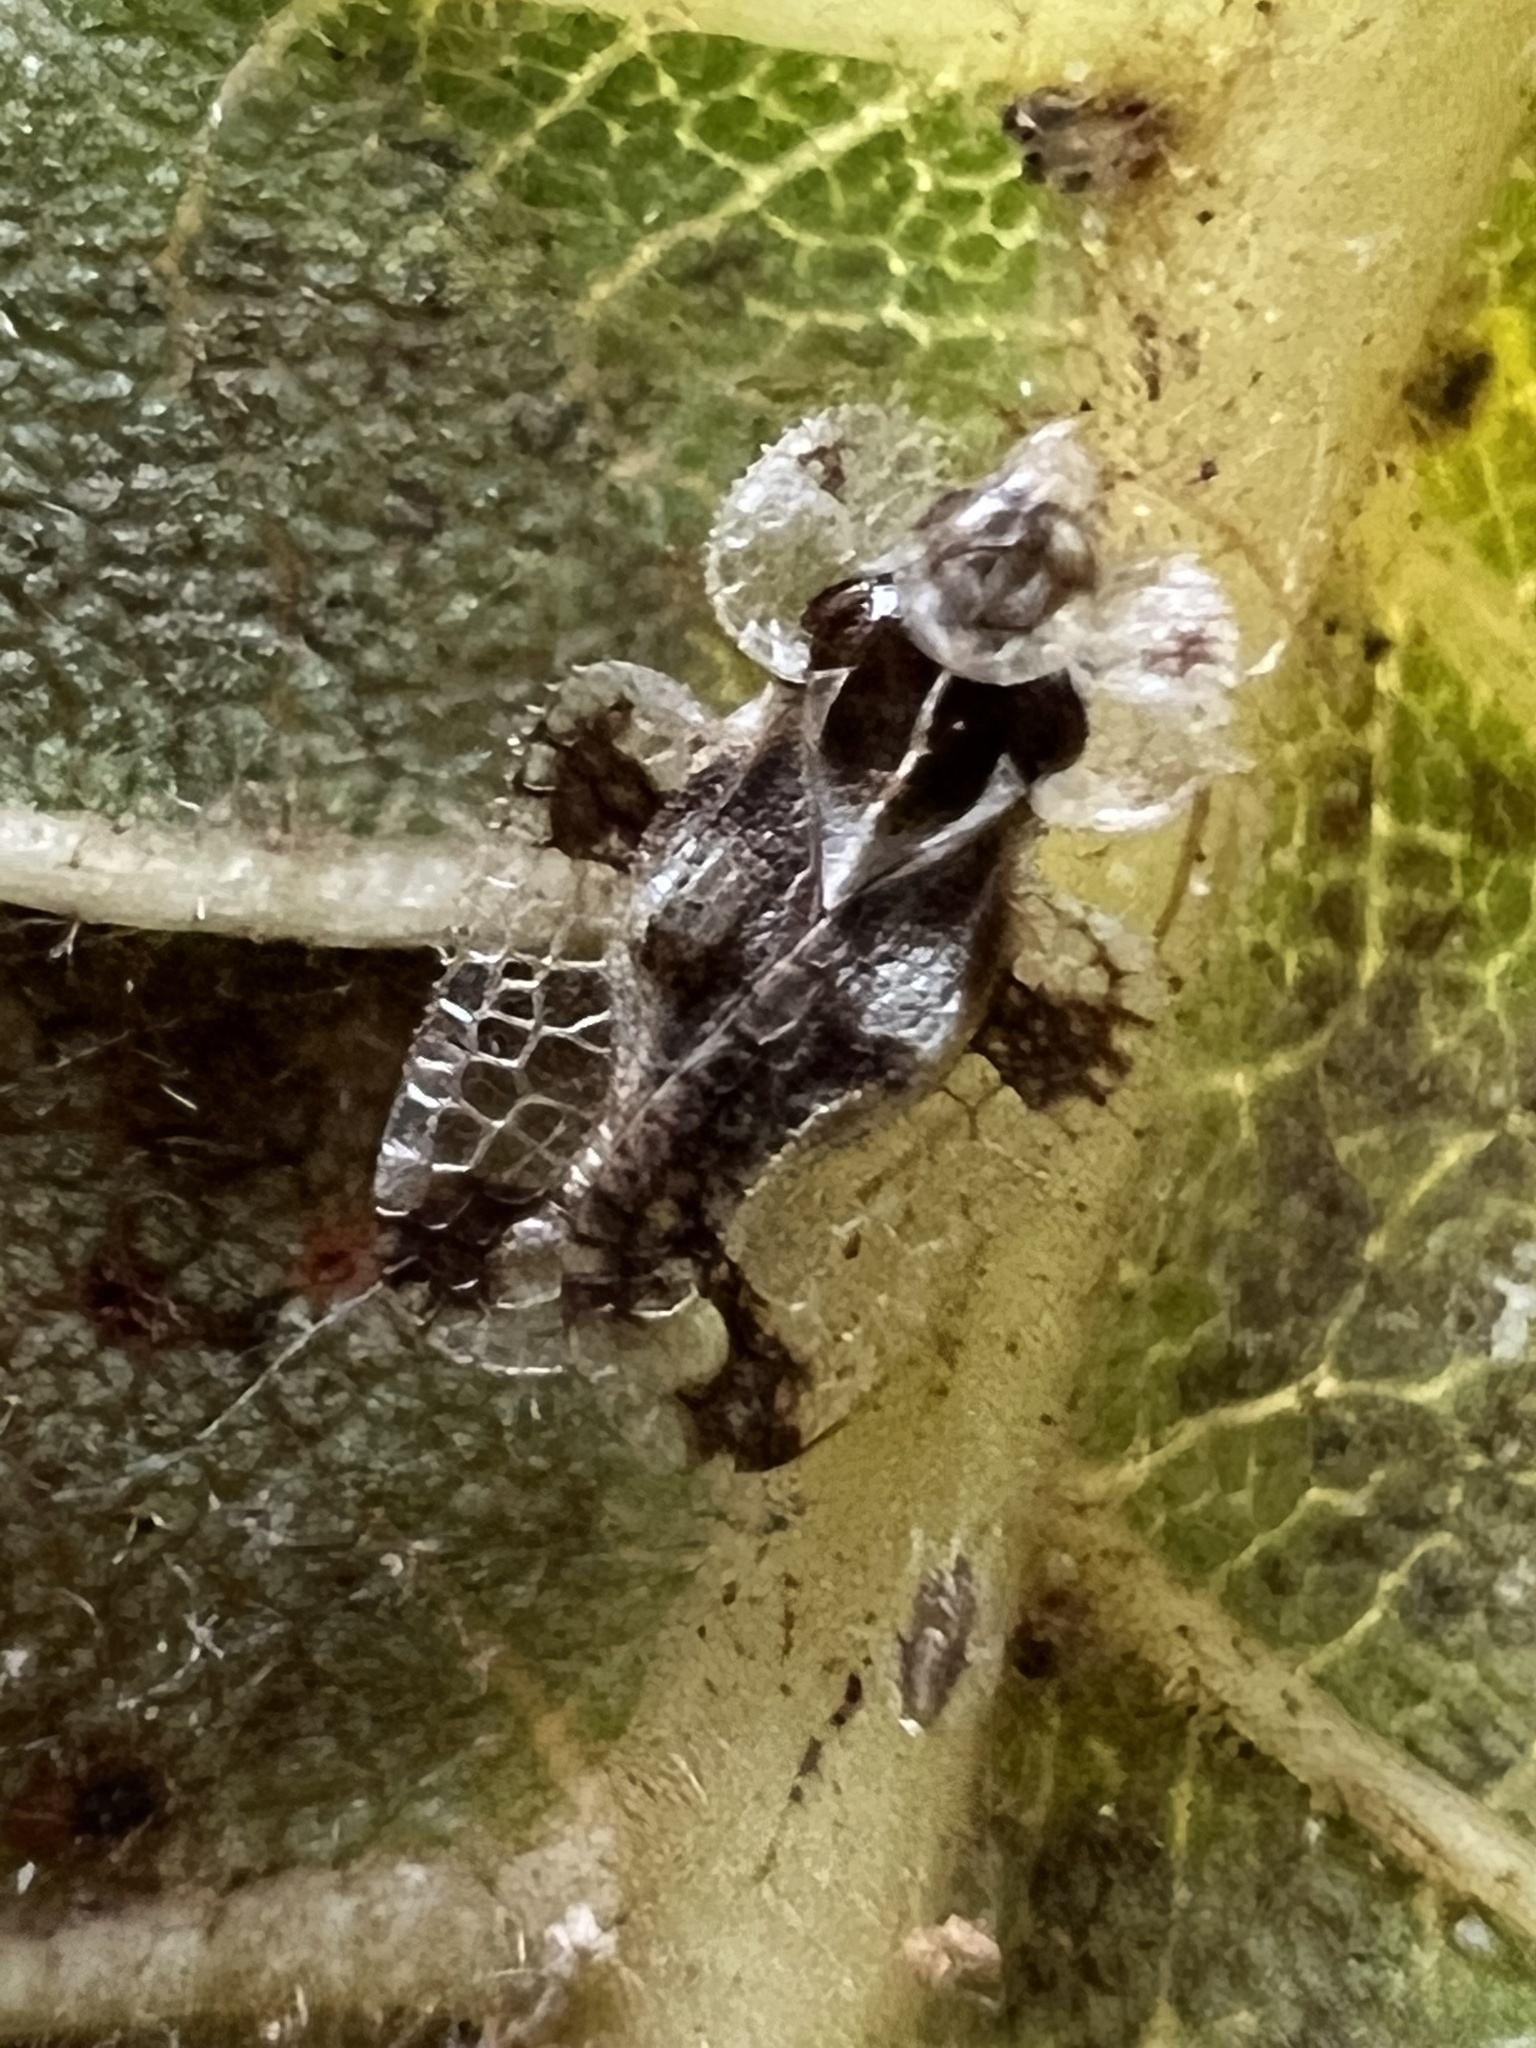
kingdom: Animalia
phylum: Arthropoda
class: Insecta
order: Hemiptera
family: Tingidae
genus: Corythucha
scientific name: Corythucha juglandis
